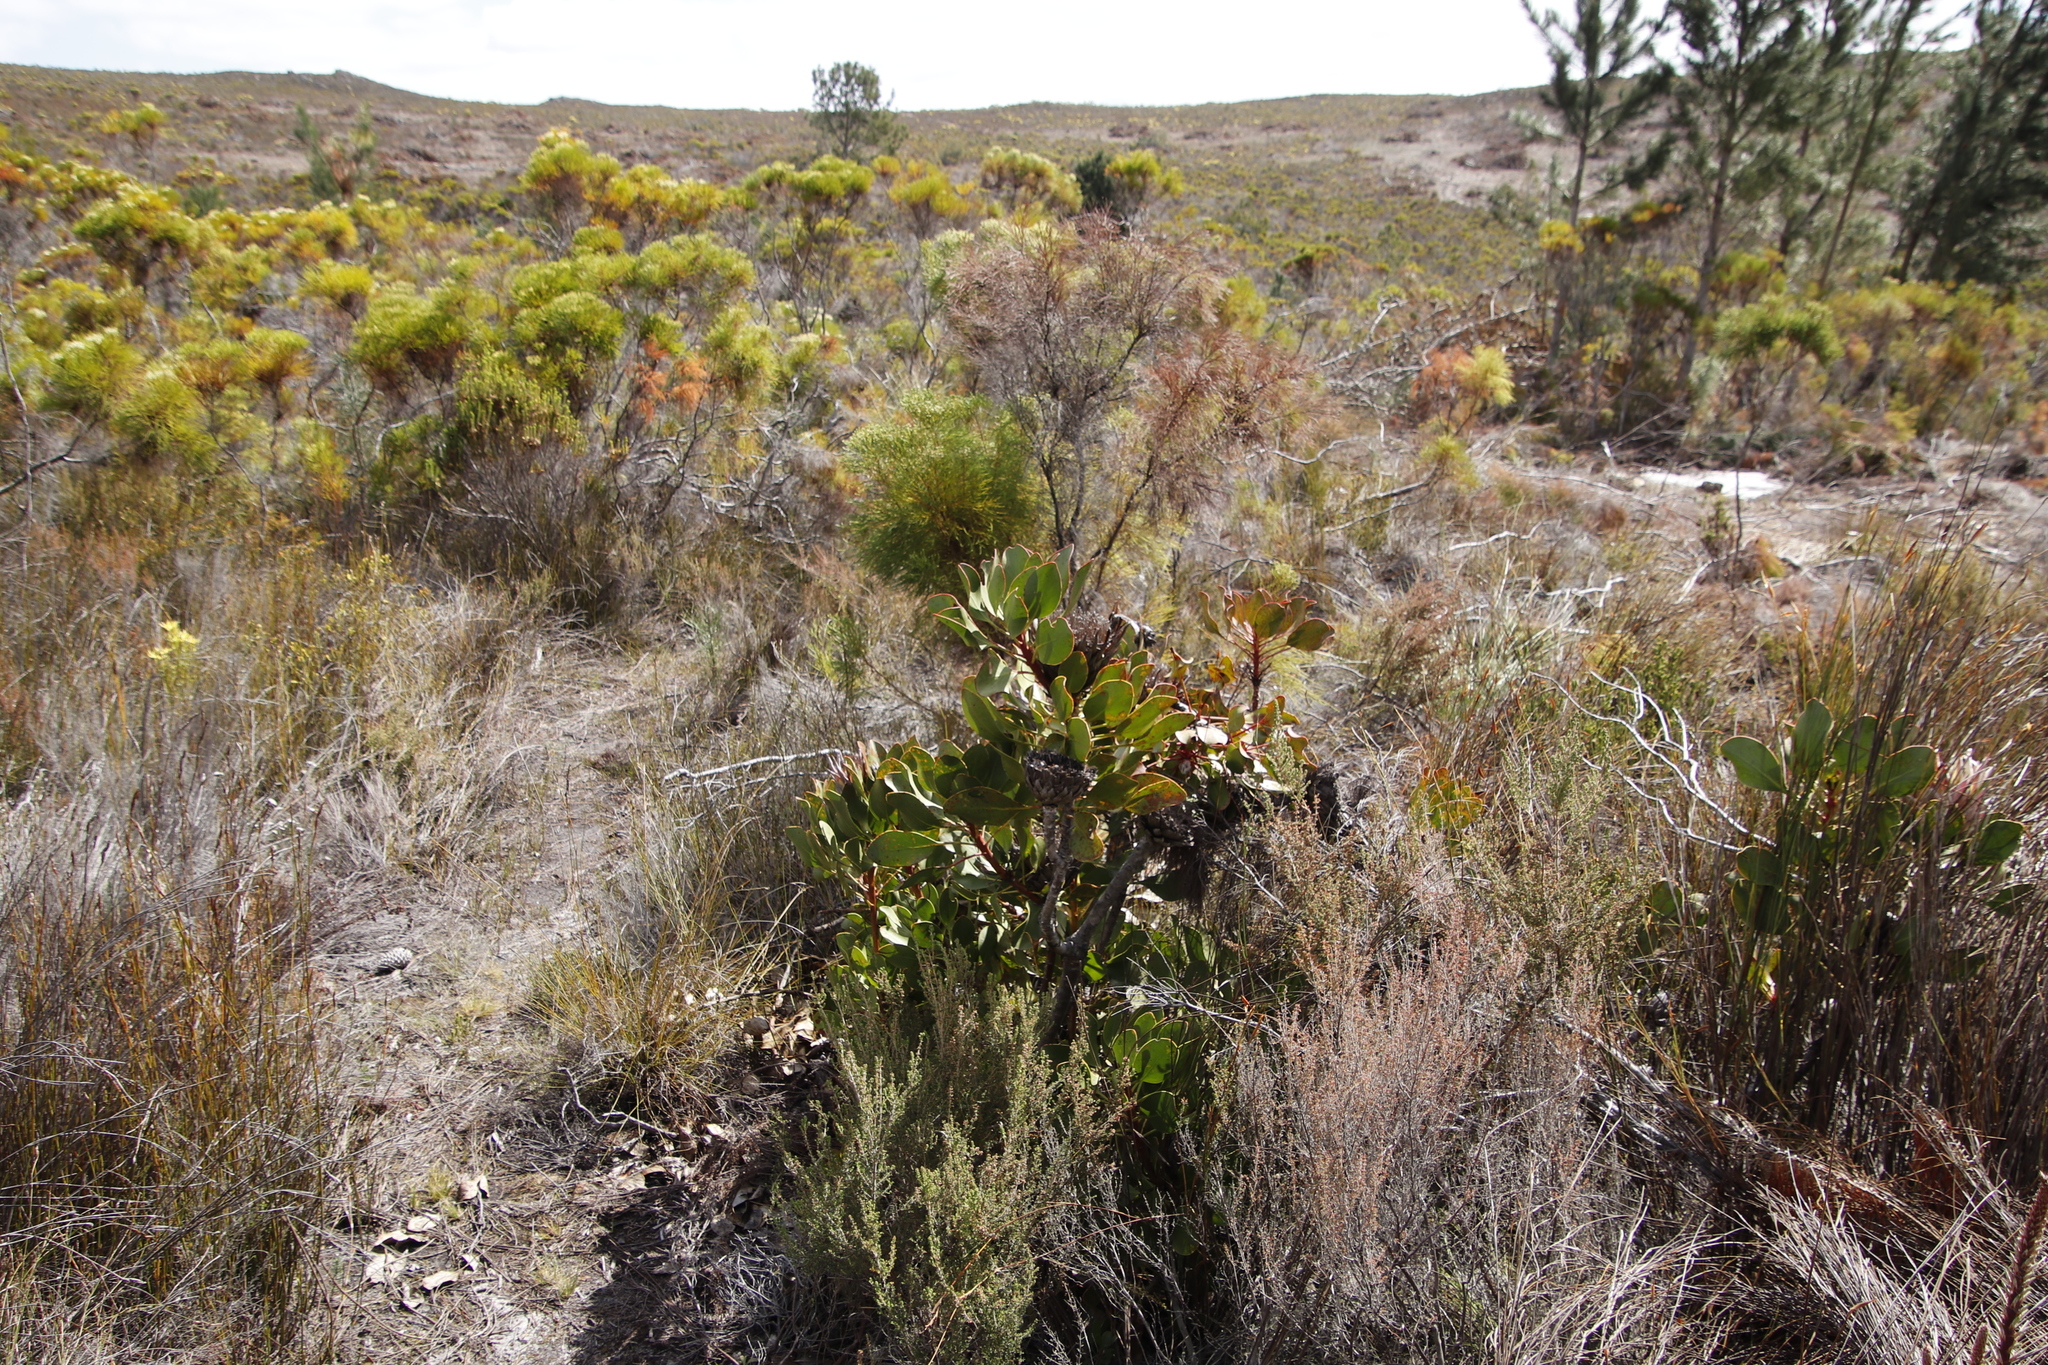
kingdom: Plantae
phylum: Tracheophyta
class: Magnoliopsida
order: Proteales
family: Proteaceae
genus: Protea
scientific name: Protea cynaroides
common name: King protea
